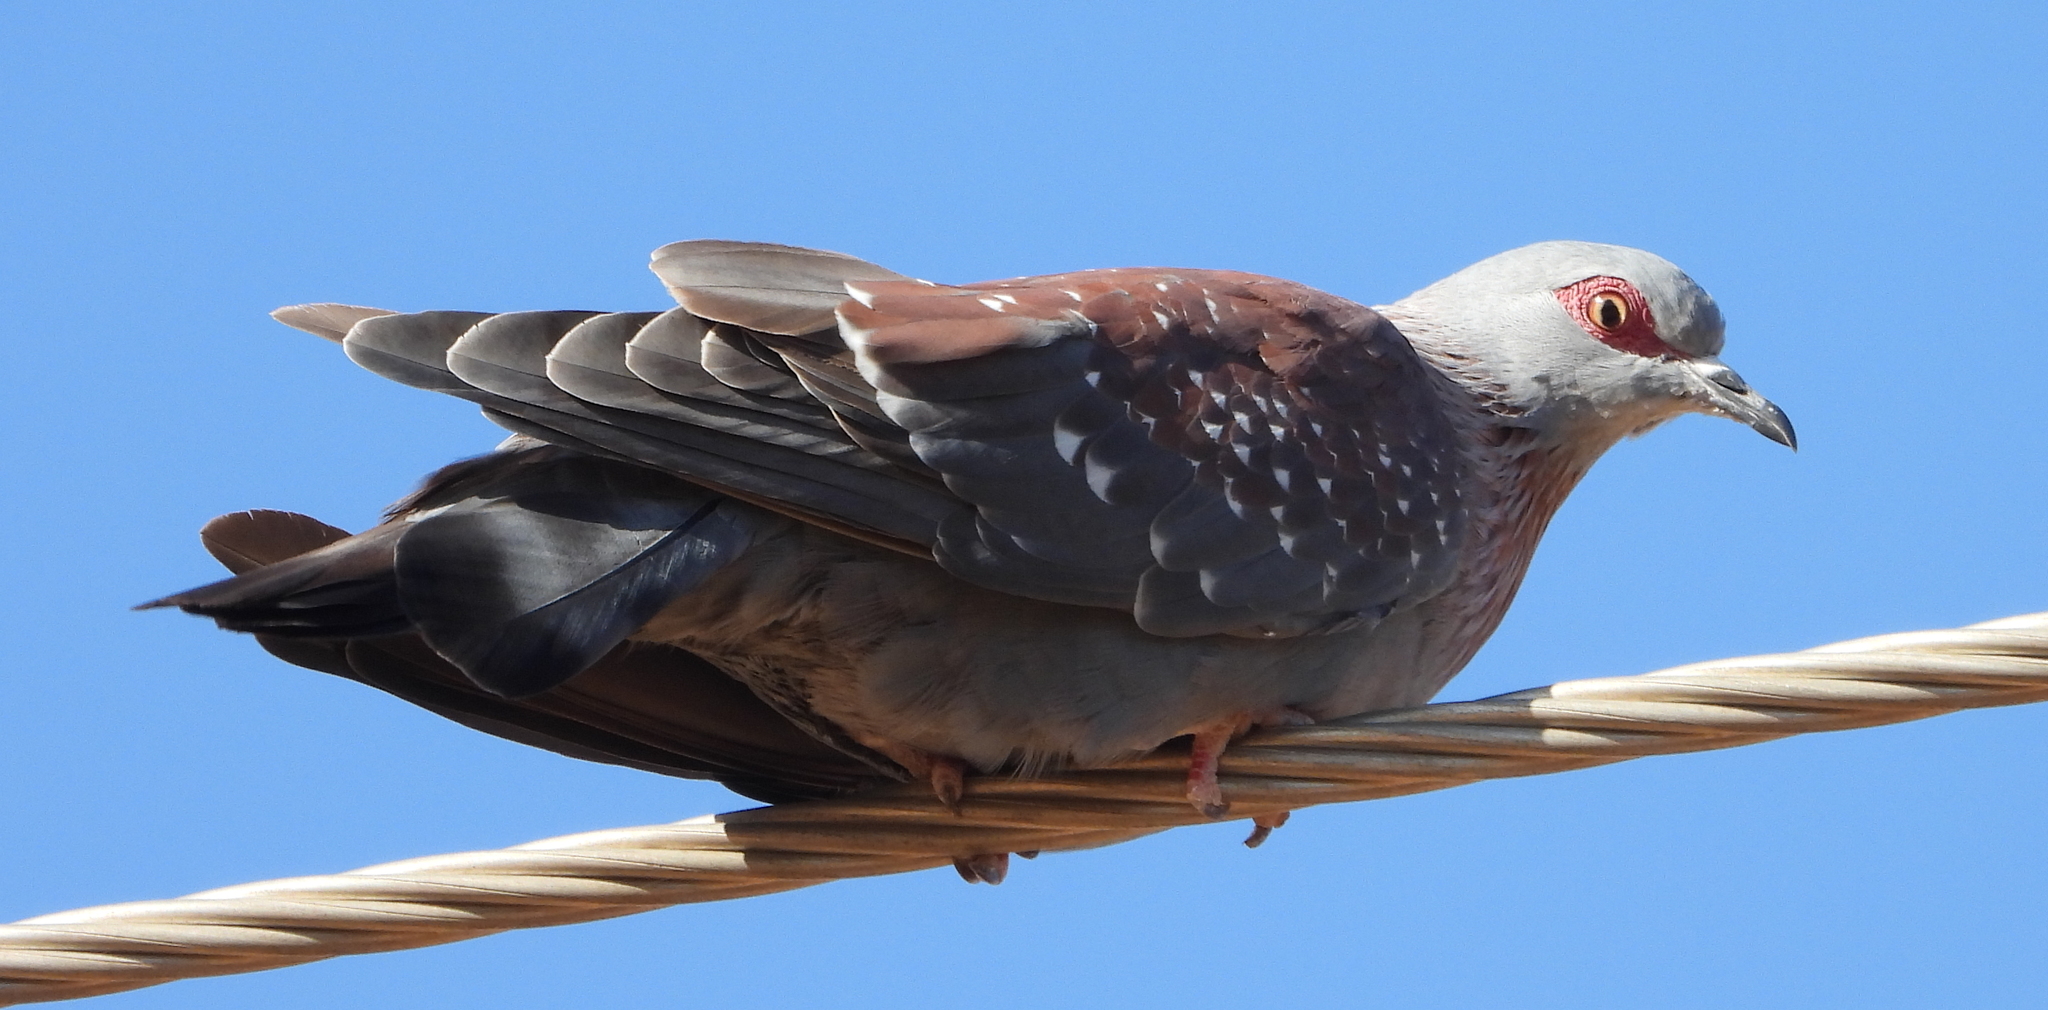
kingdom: Animalia
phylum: Chordata
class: Aves
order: Columbiformes
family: Columbidae
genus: Columba
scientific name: Columba guinea
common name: Speckled pigeon
